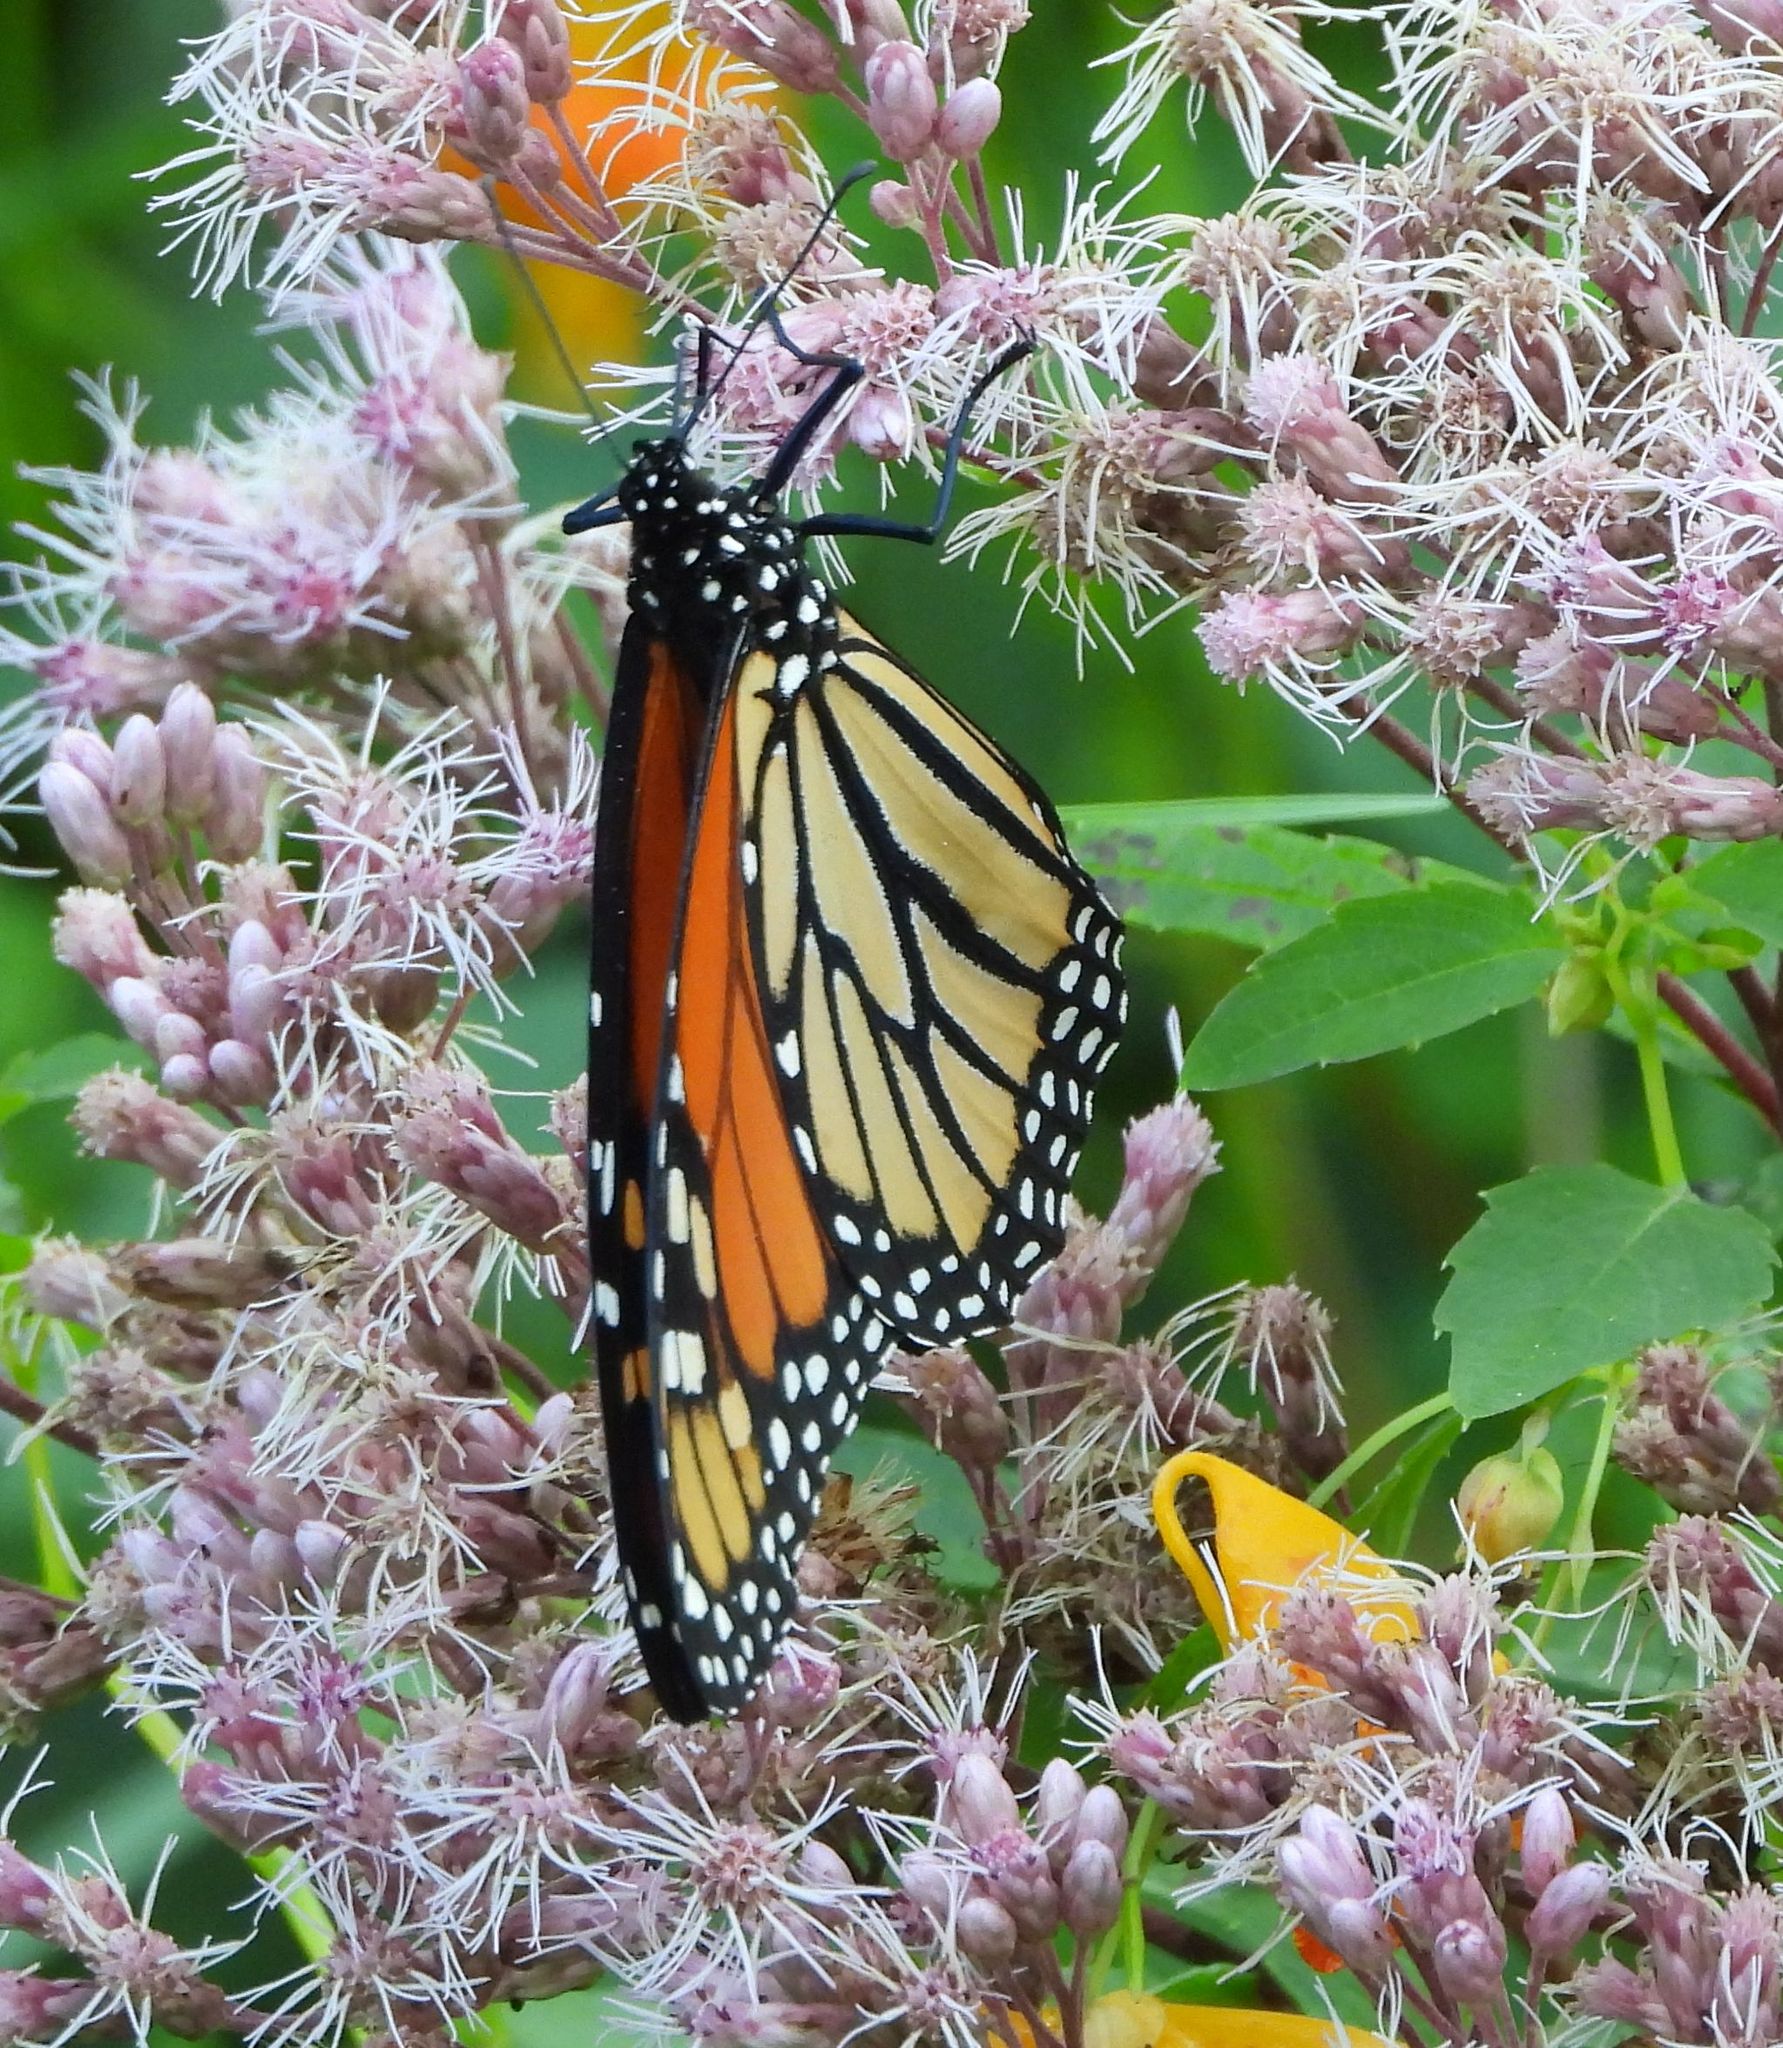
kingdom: Animalia
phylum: Arthropoda
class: Insecta
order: Lepidoptera
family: Nymphalidae
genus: Danaus
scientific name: Danaus plexippus
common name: Monarch
